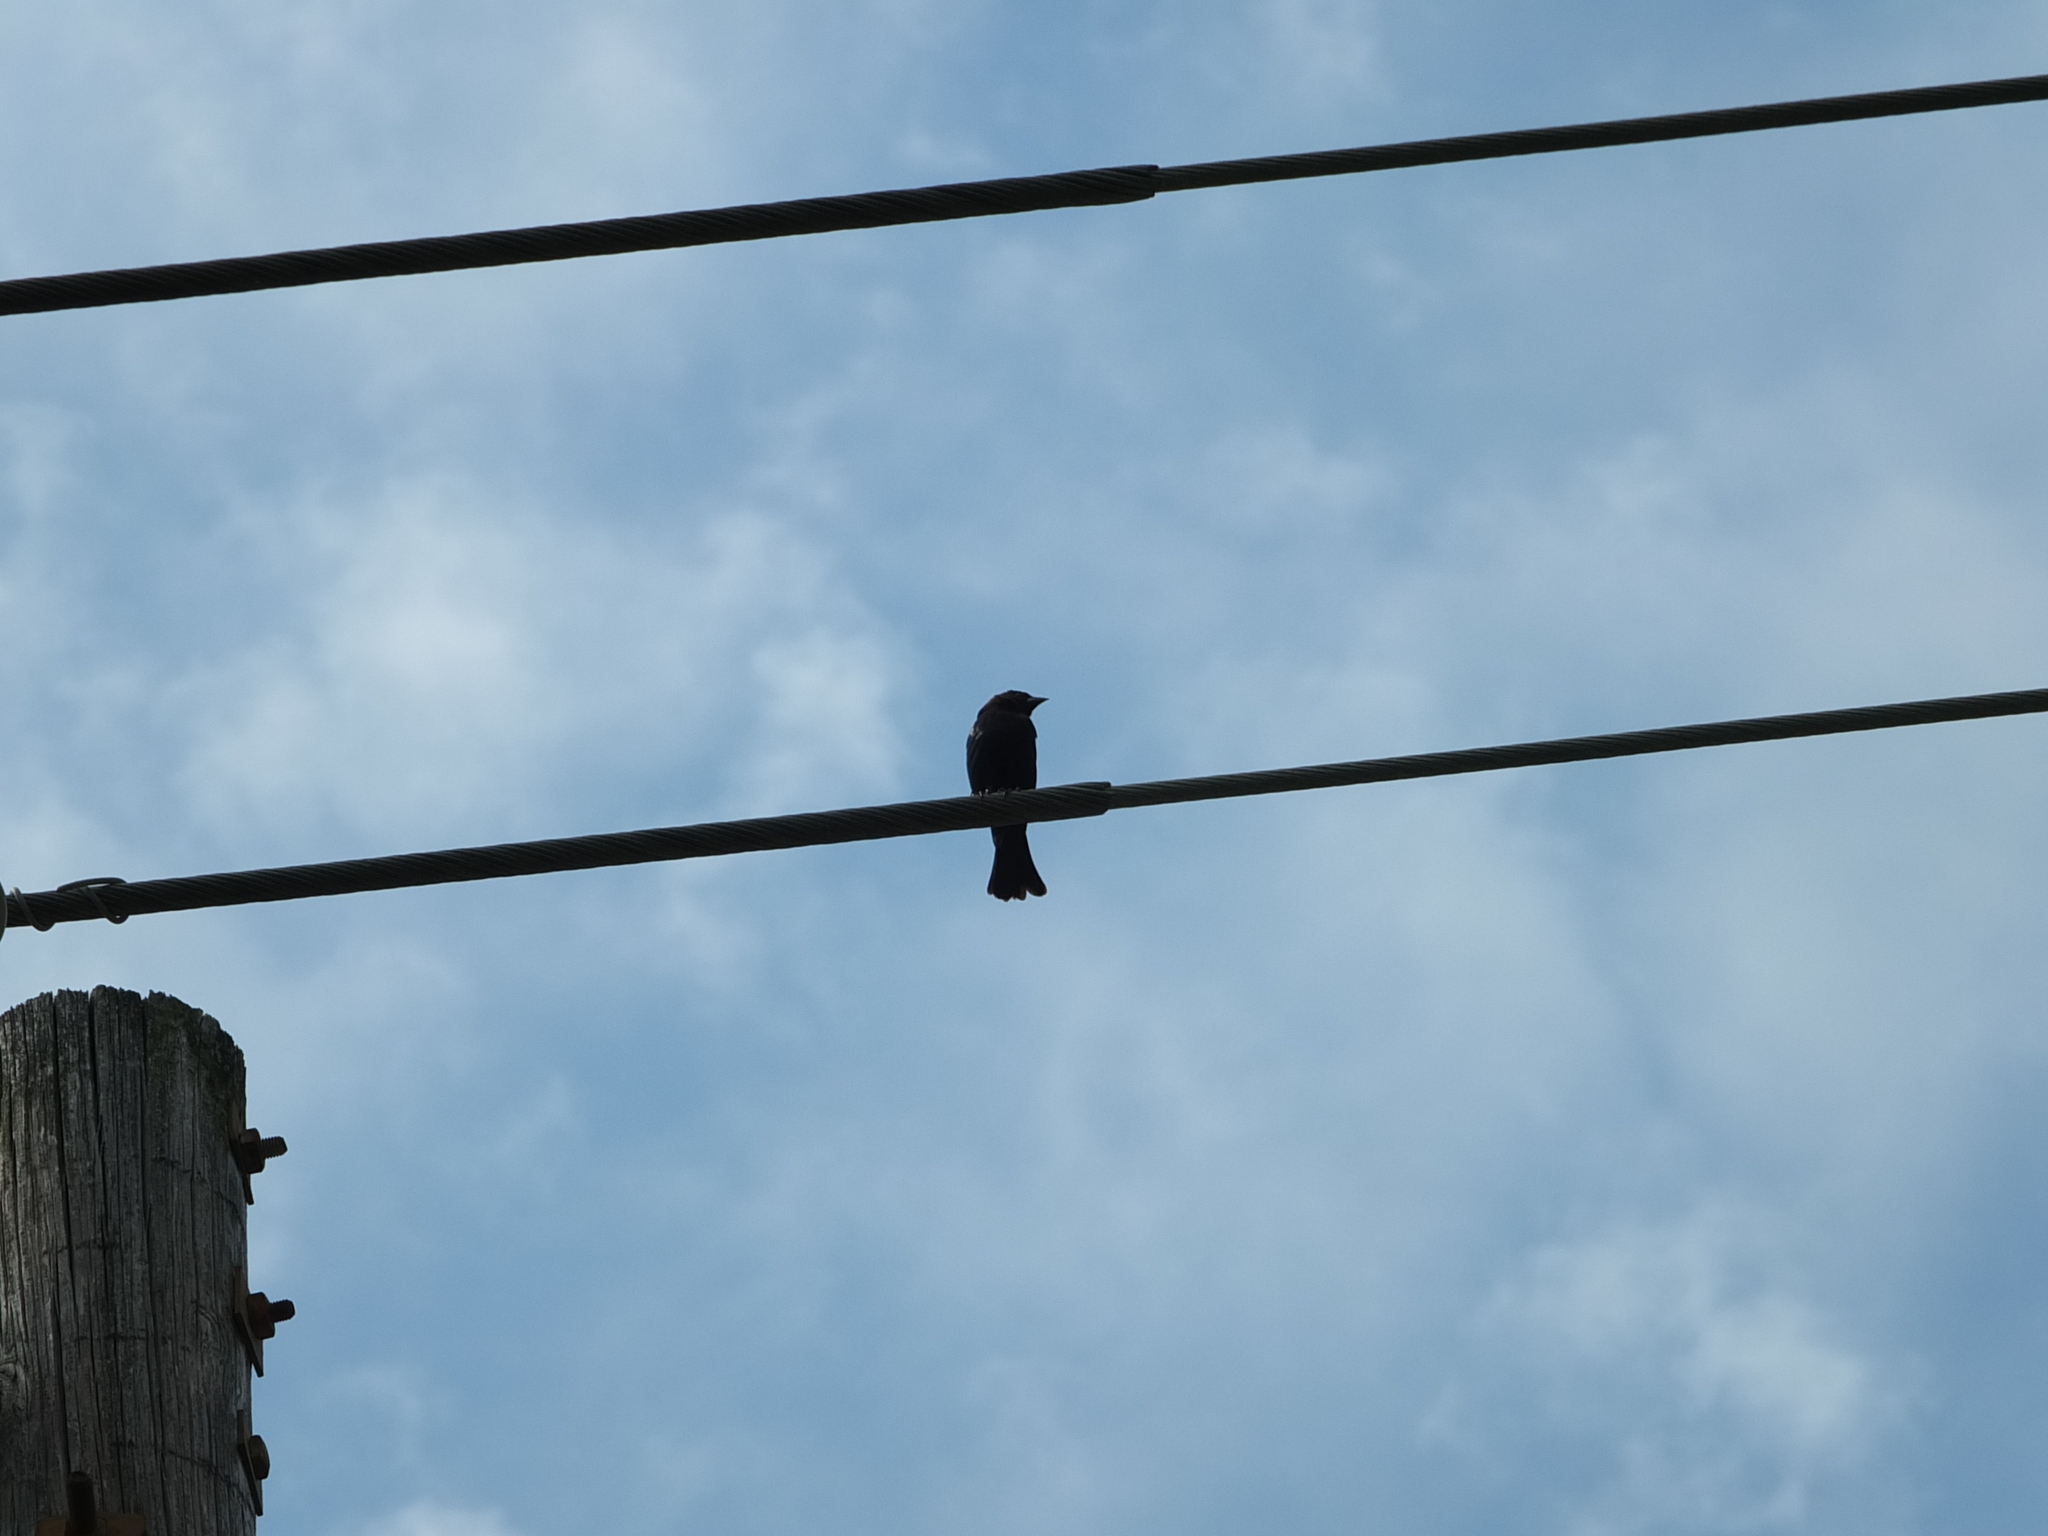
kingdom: Animalia
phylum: Chordata
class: Aves
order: Passeriformes
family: Icteridae
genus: Molothrus
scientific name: Molothrus ater
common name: Brown-headed cowbird
